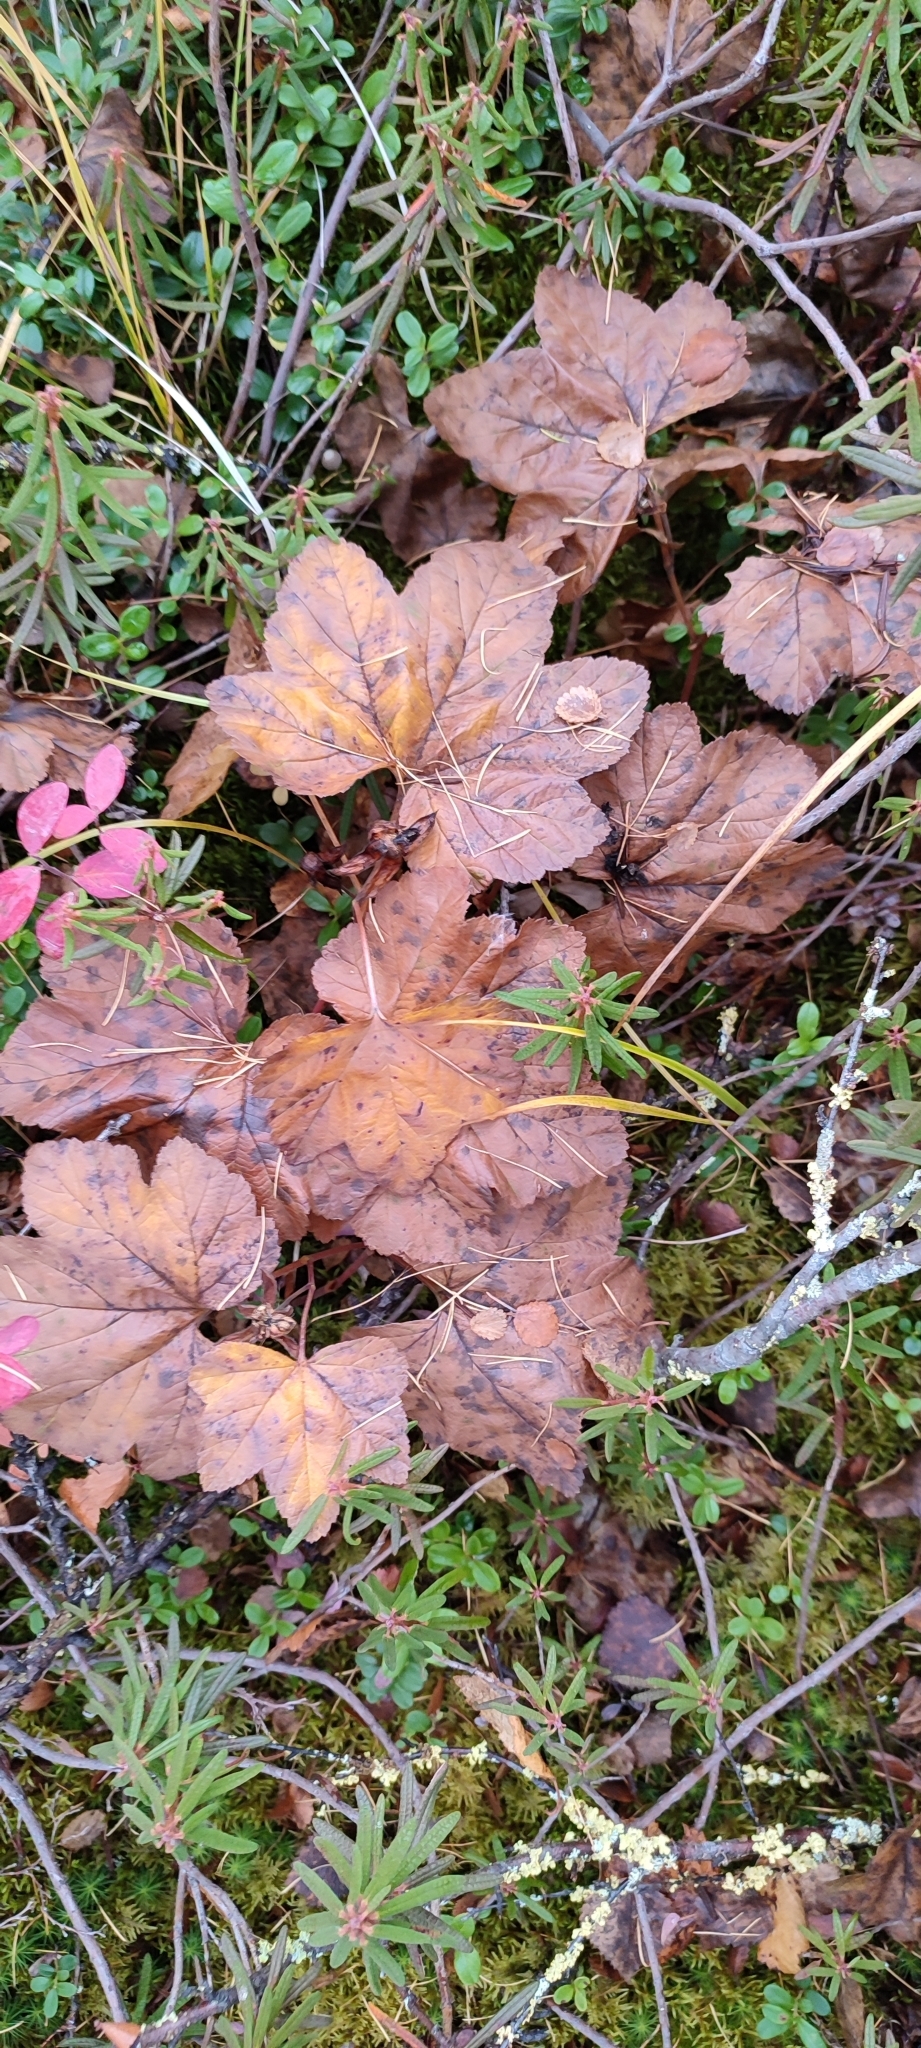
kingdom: Plantae
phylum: Tracheophyta
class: Magnoliopsida
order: Rosales
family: Rosaceae
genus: Rubus
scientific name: Rubus chamaemorus
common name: Cloudberry
